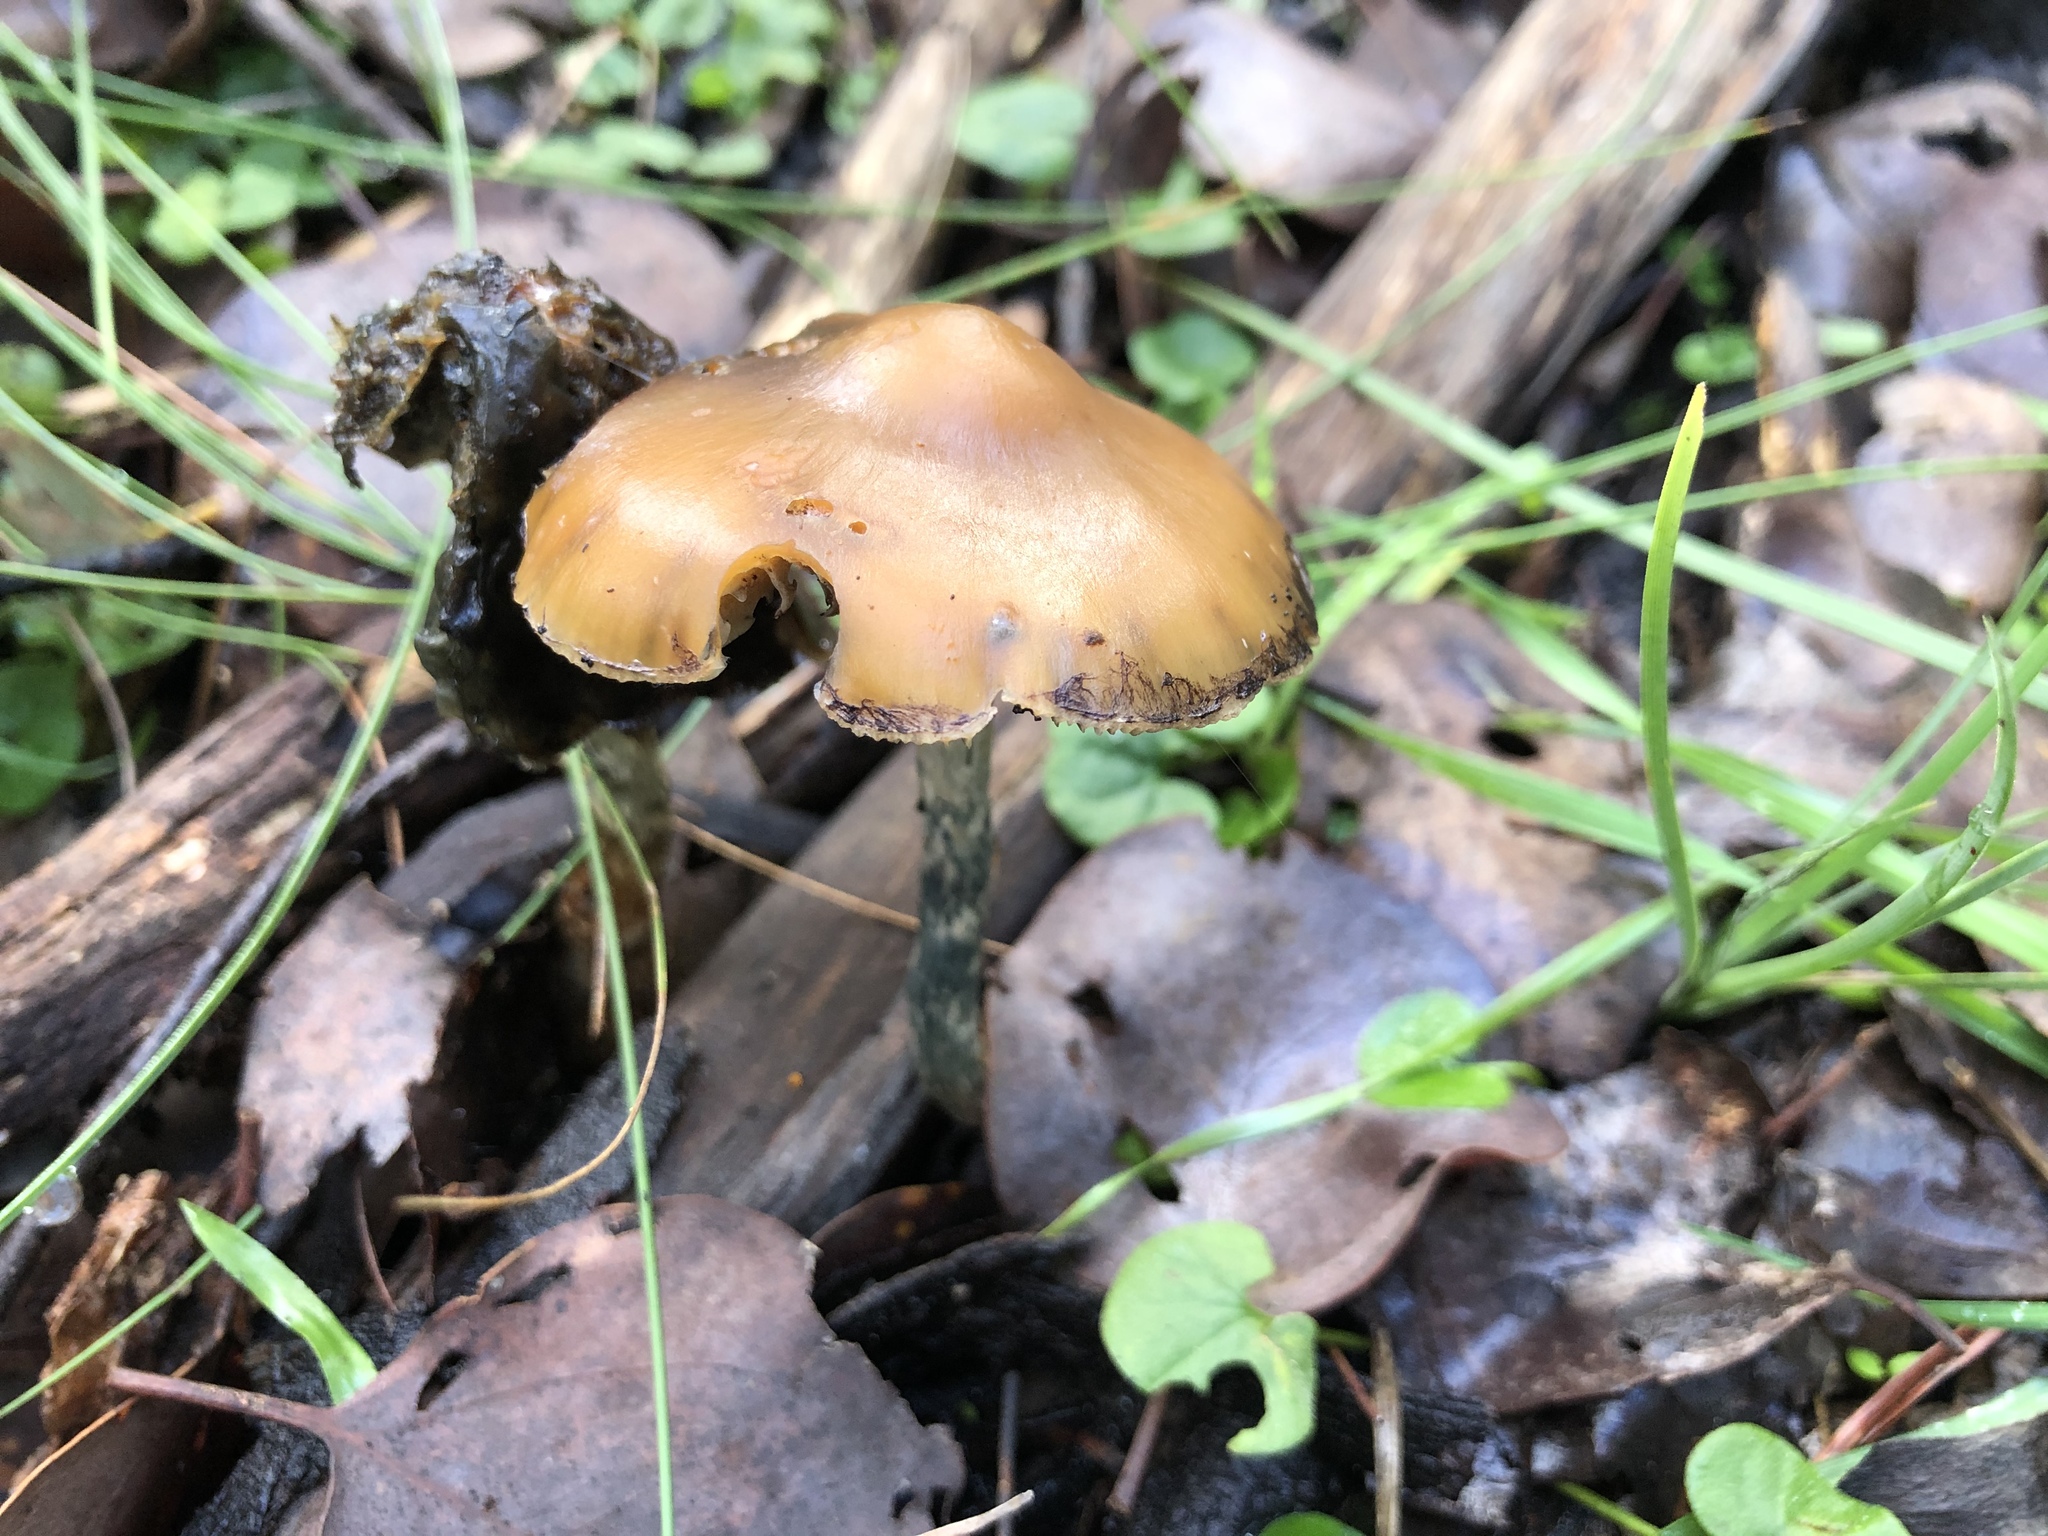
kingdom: Fungi
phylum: Basidiomycota
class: Agaricomycetes
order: Agaricales
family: Hymenogastraceae
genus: Psilocybe
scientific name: Psilocybe subaeruginosa
